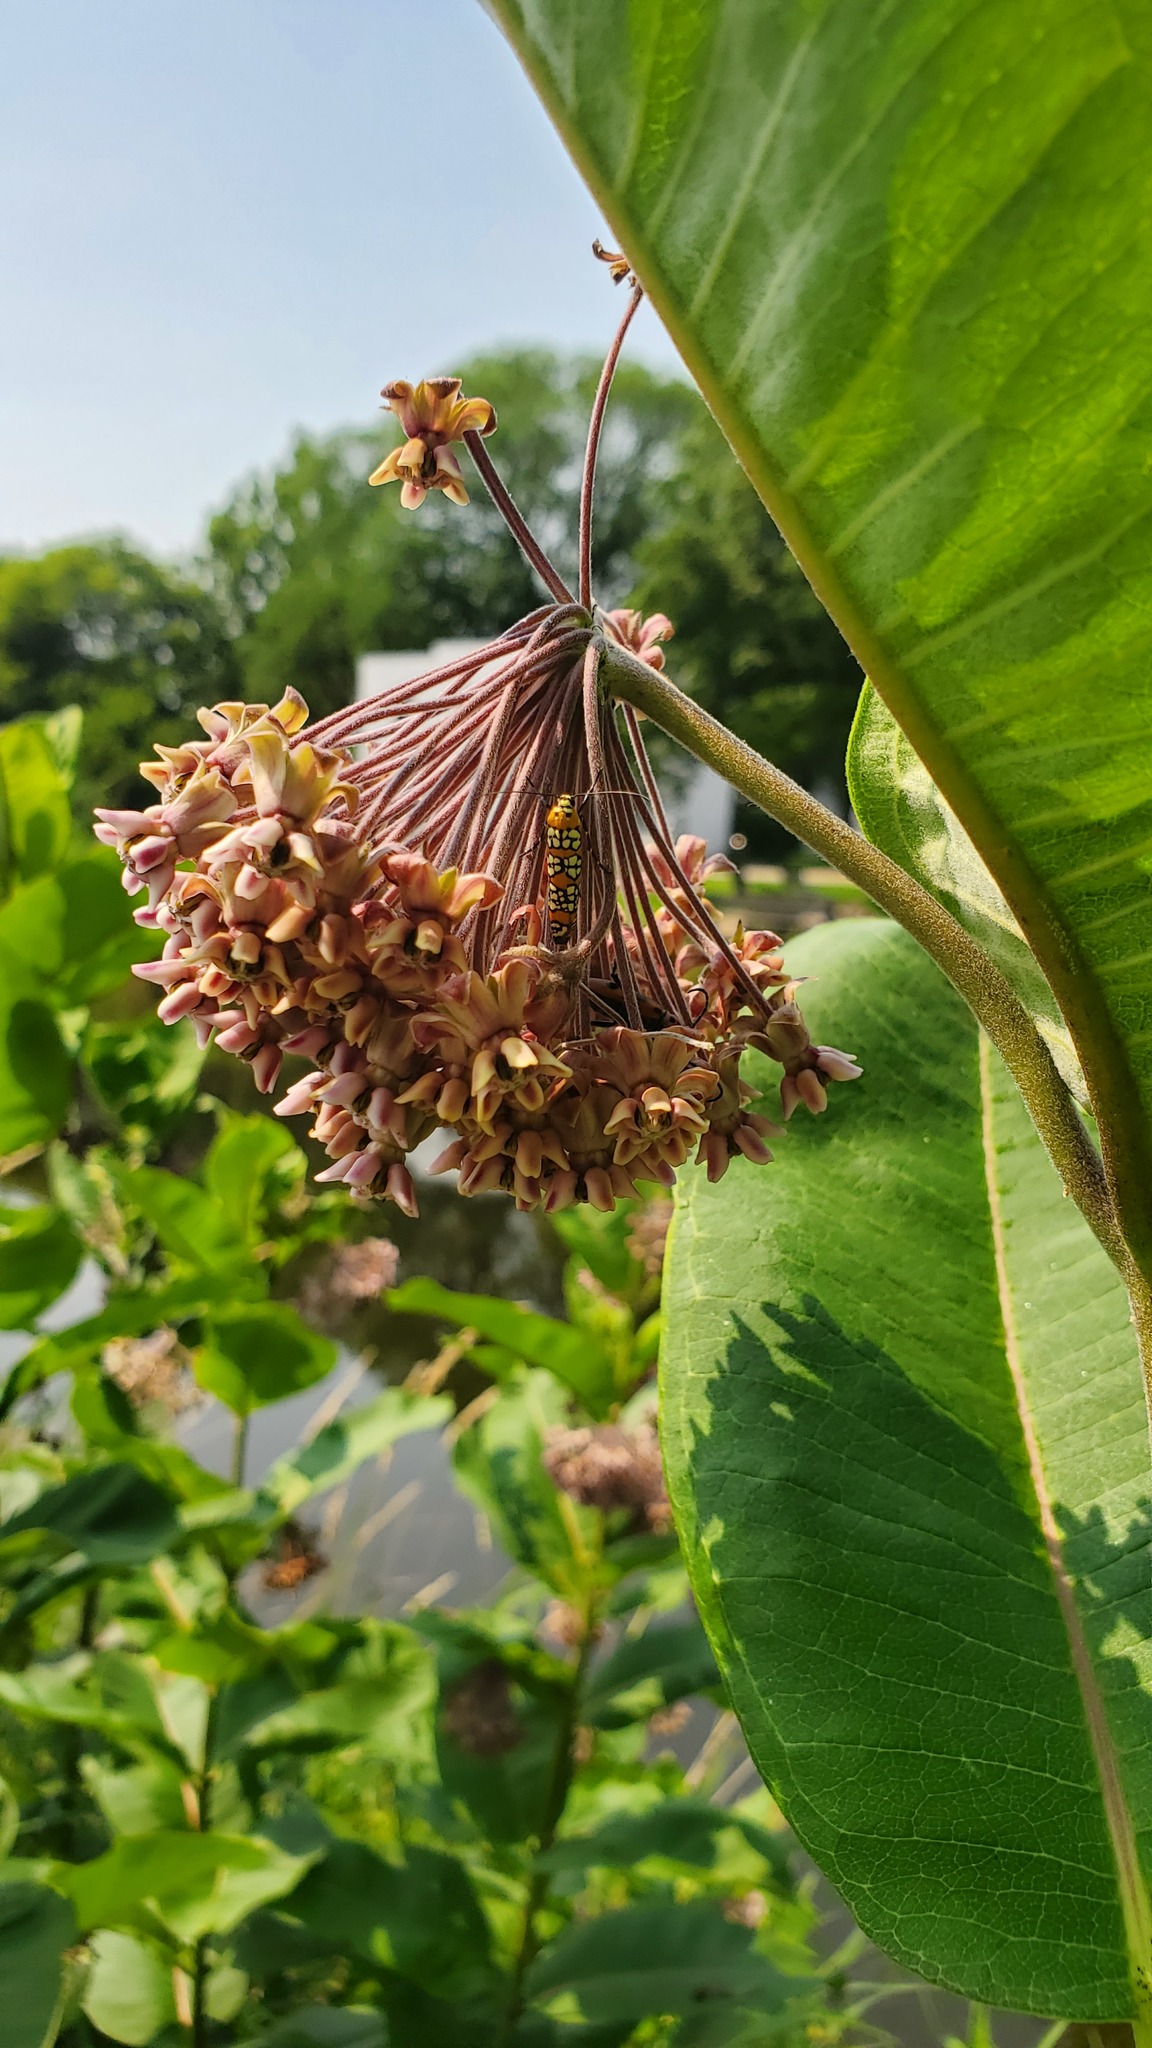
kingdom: Animalia
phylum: Arthropoda
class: Insecta
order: Lepidoptera
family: Attevidae
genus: Atteva
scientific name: Atteva punctella
